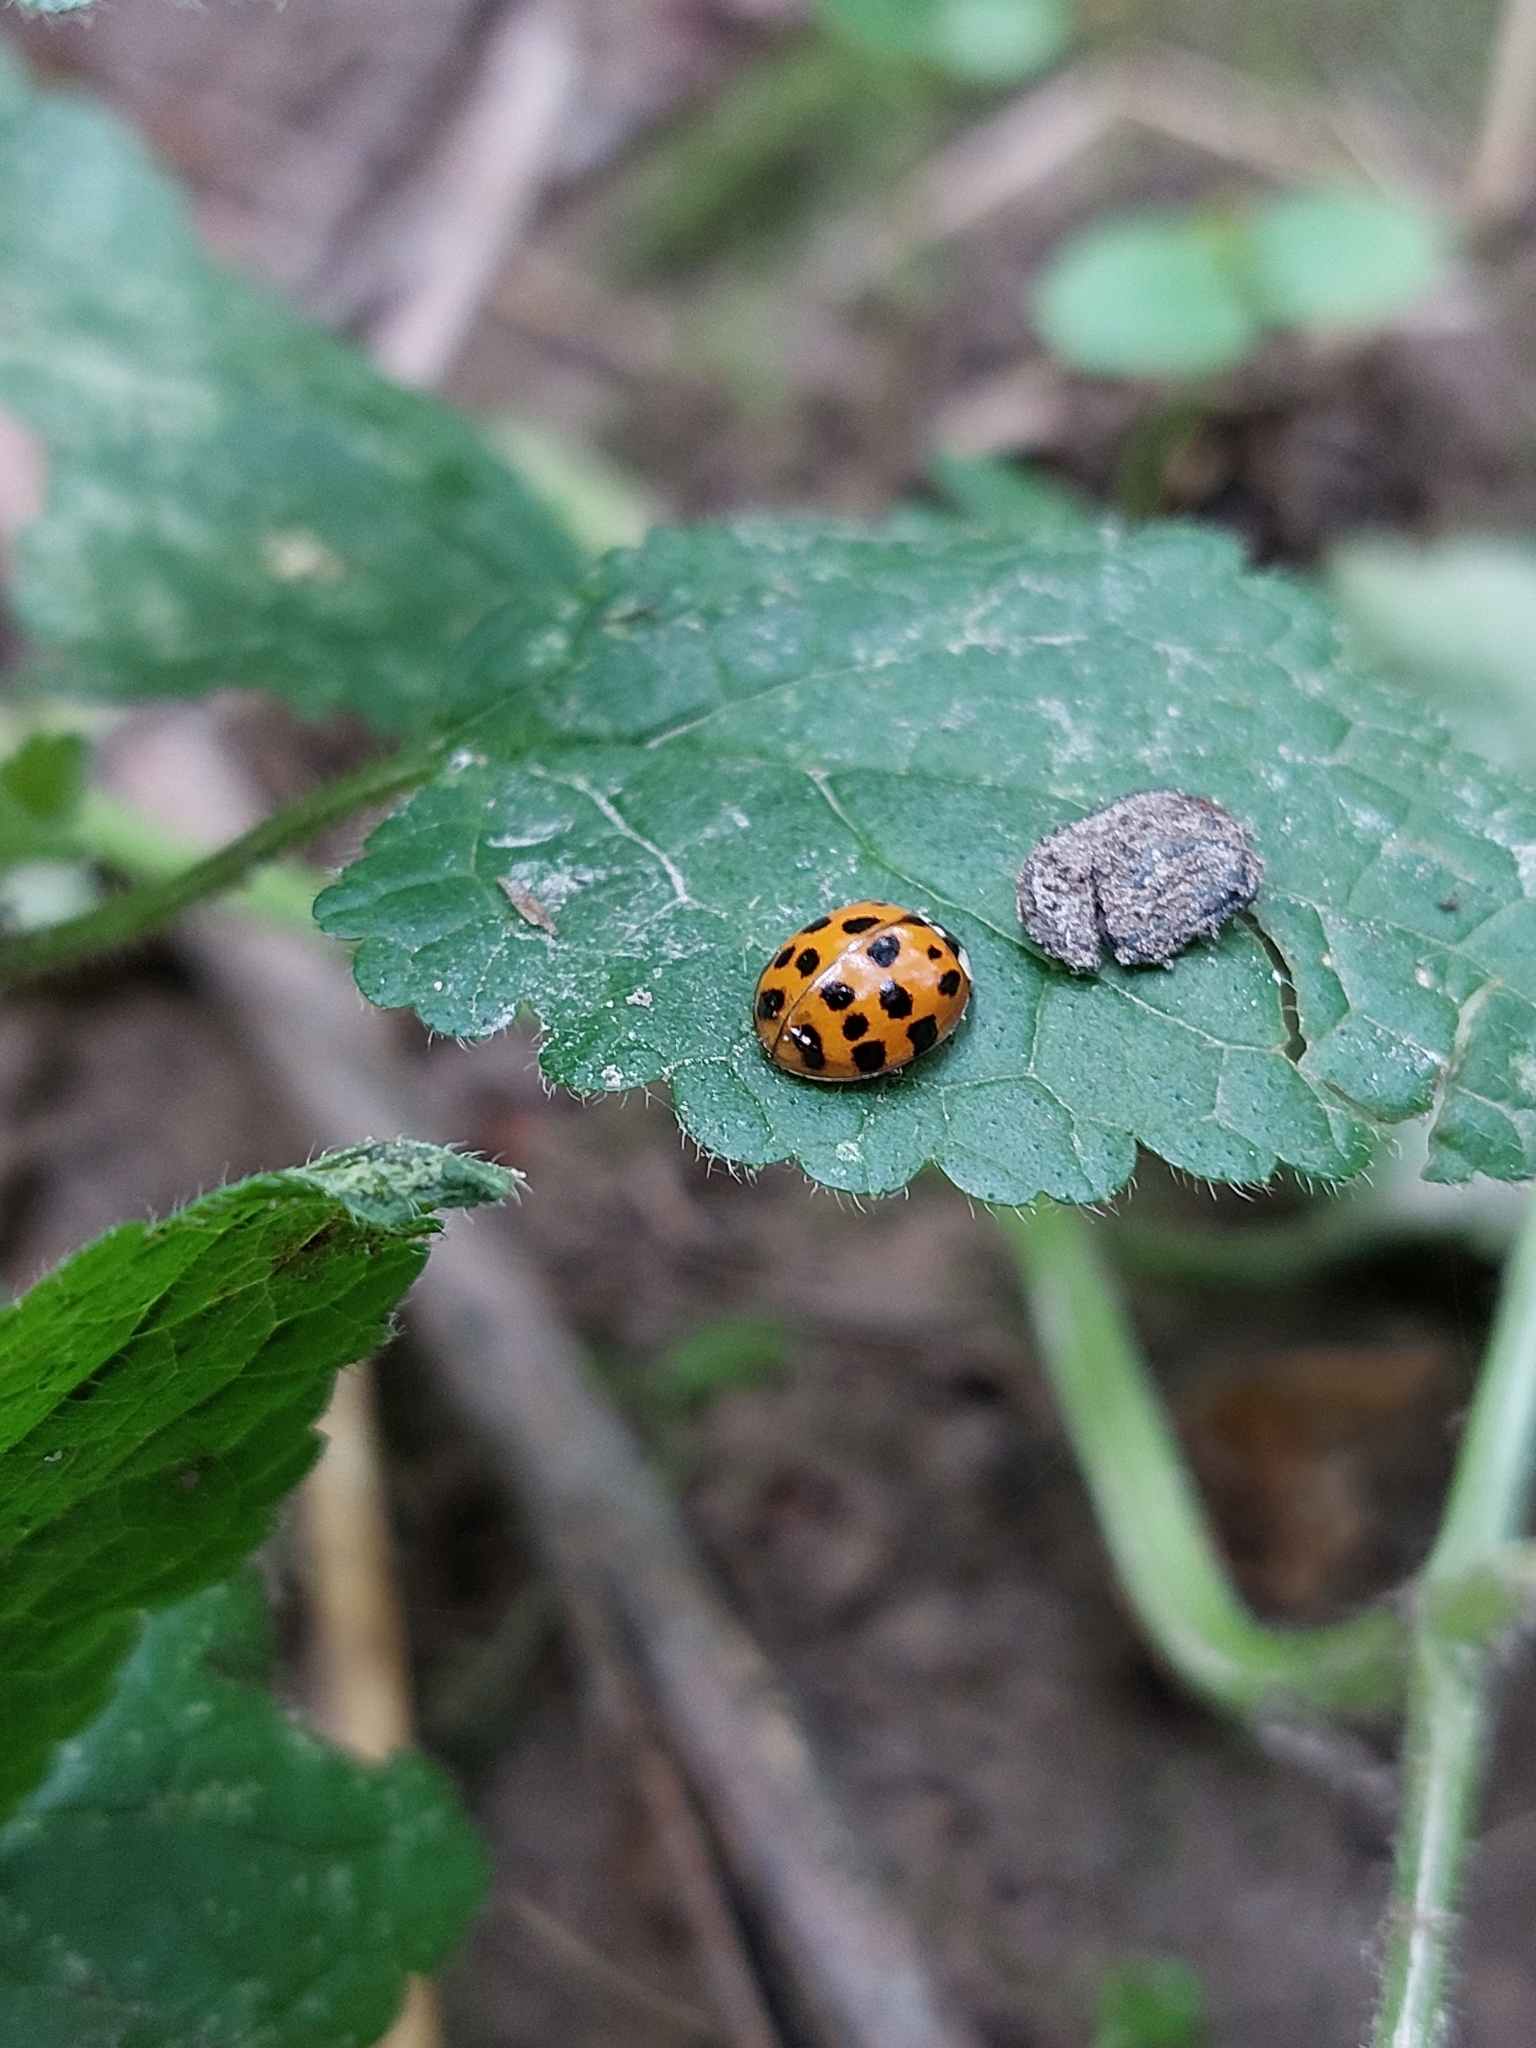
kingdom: Animalia
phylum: Arthropoda
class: Insecta
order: Coleoptera
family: Coccinellidae
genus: Harmonia
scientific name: Harmonia axyridis
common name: Harlequin ladybird
